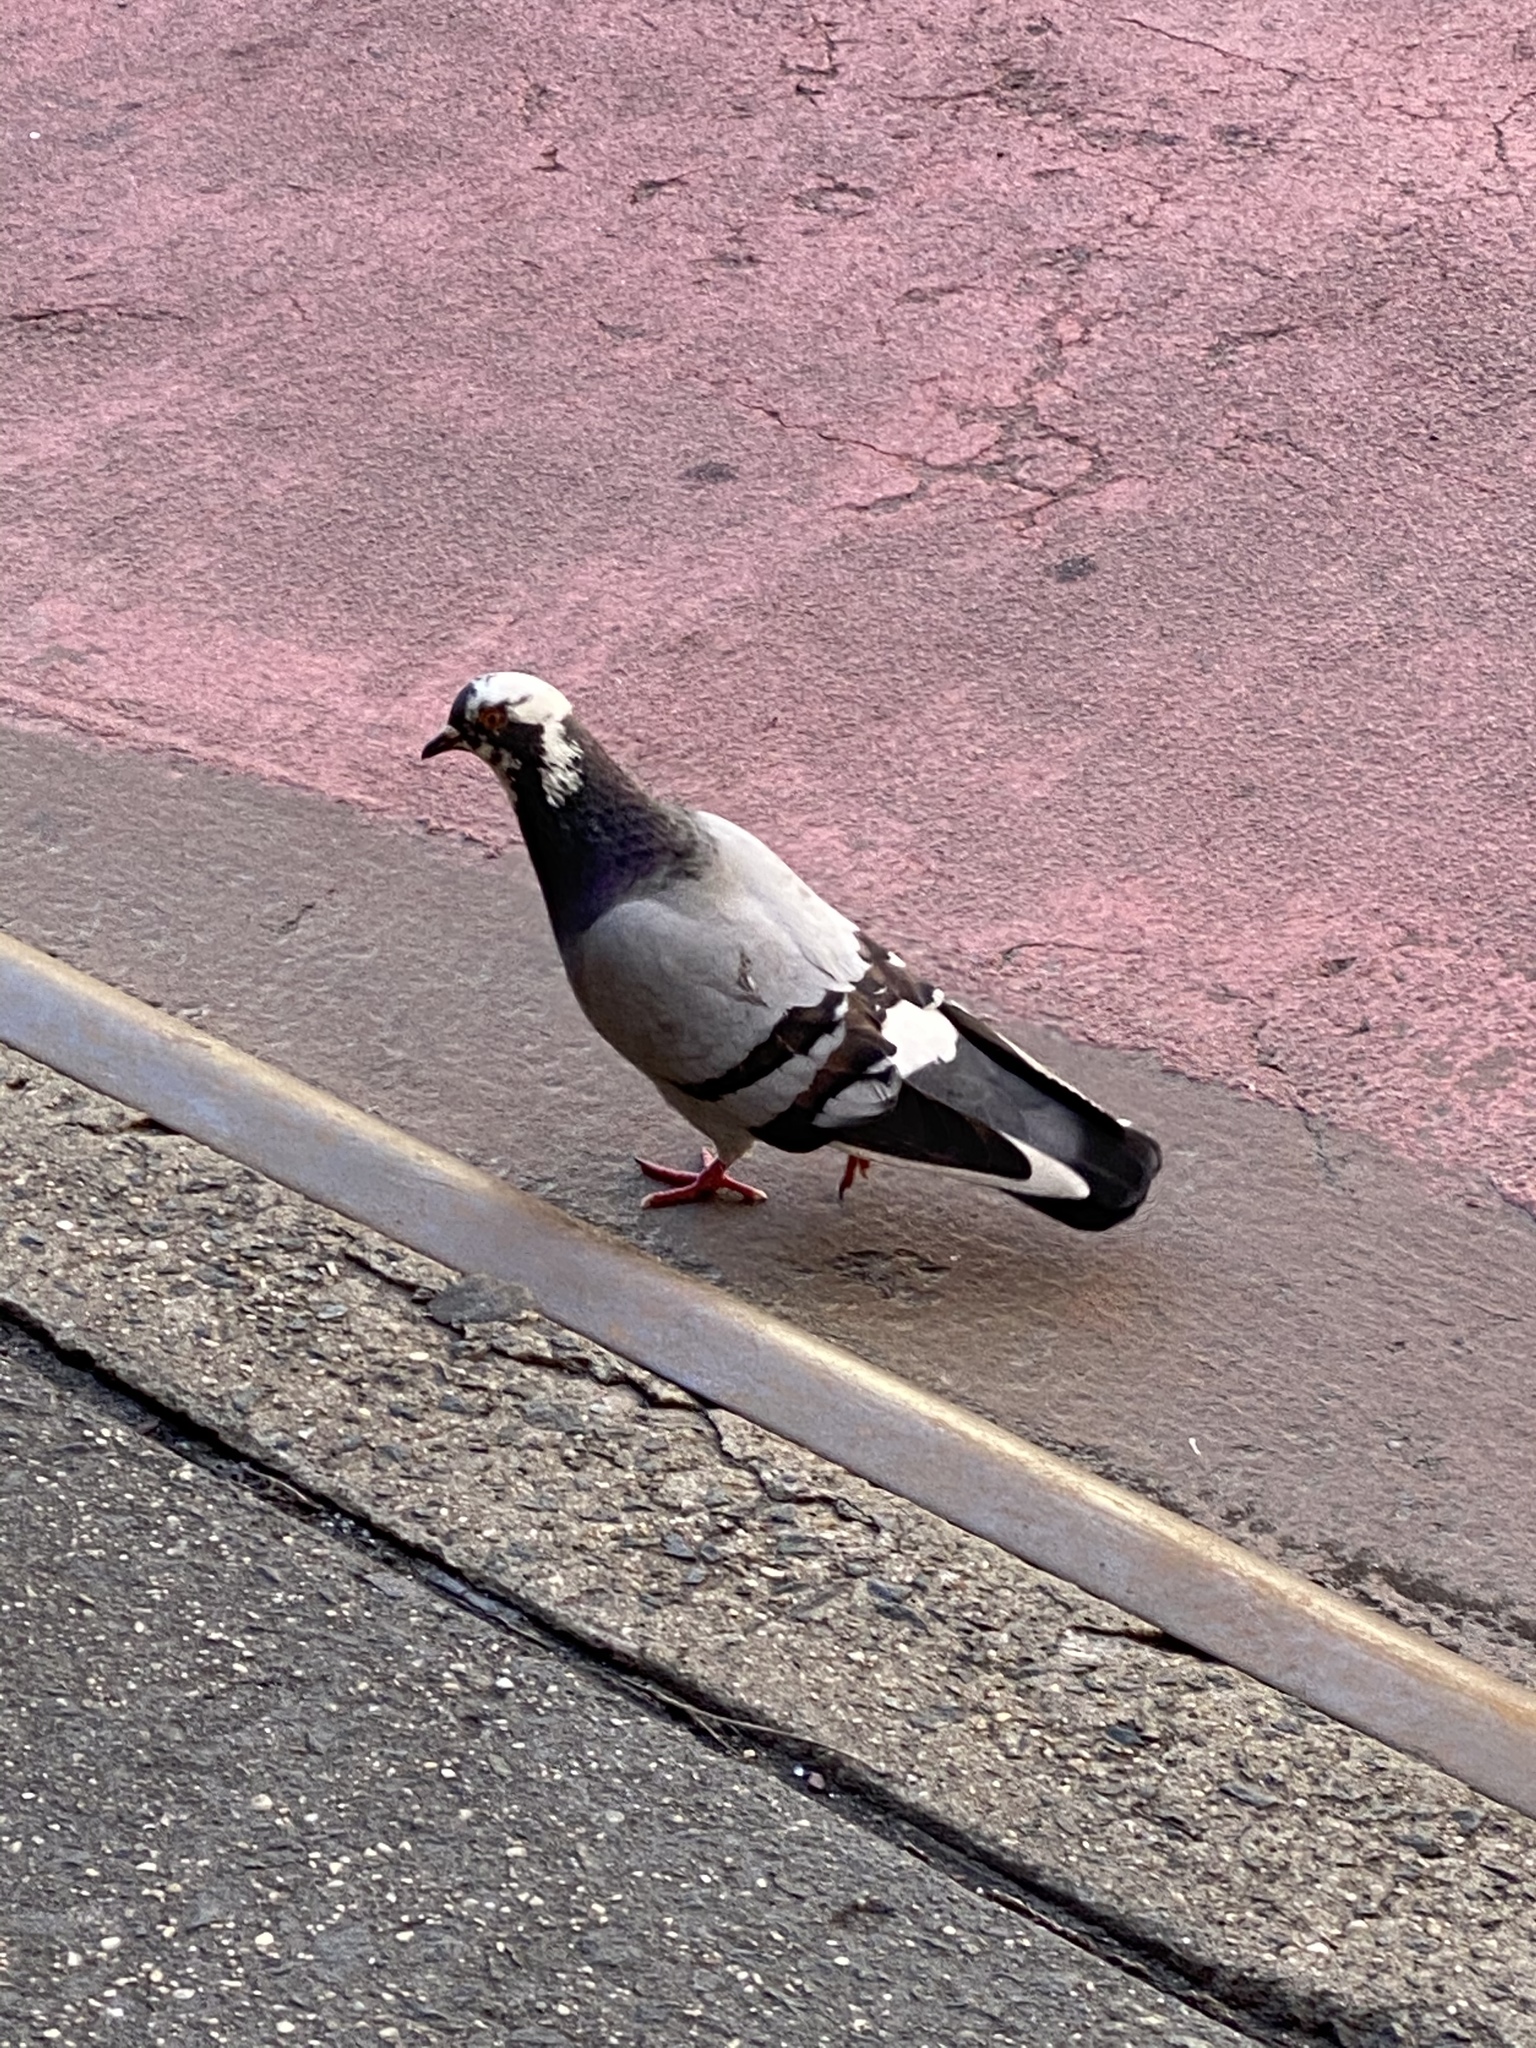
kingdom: Animalia
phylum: Chordata
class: Aves
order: Columbiformes
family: Columbidae
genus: Columba
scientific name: Columba livia
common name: Rock pigeon
